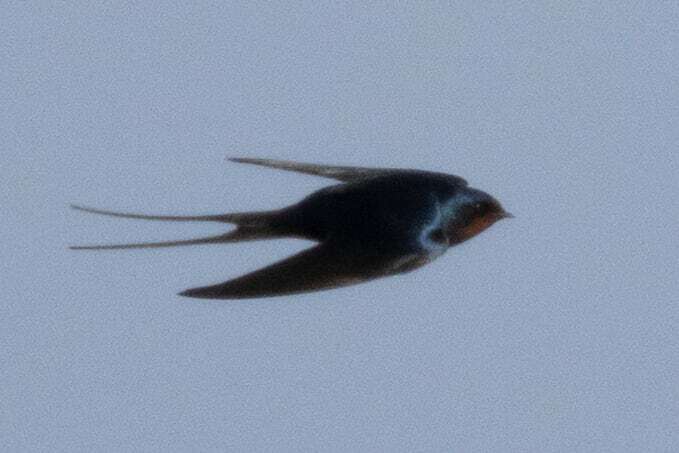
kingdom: Animalia
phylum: Chordata
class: Aves
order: Passeriformes
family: Hirundinidae
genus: Hirundo
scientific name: Hirundo rustica
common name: Barn swallow
